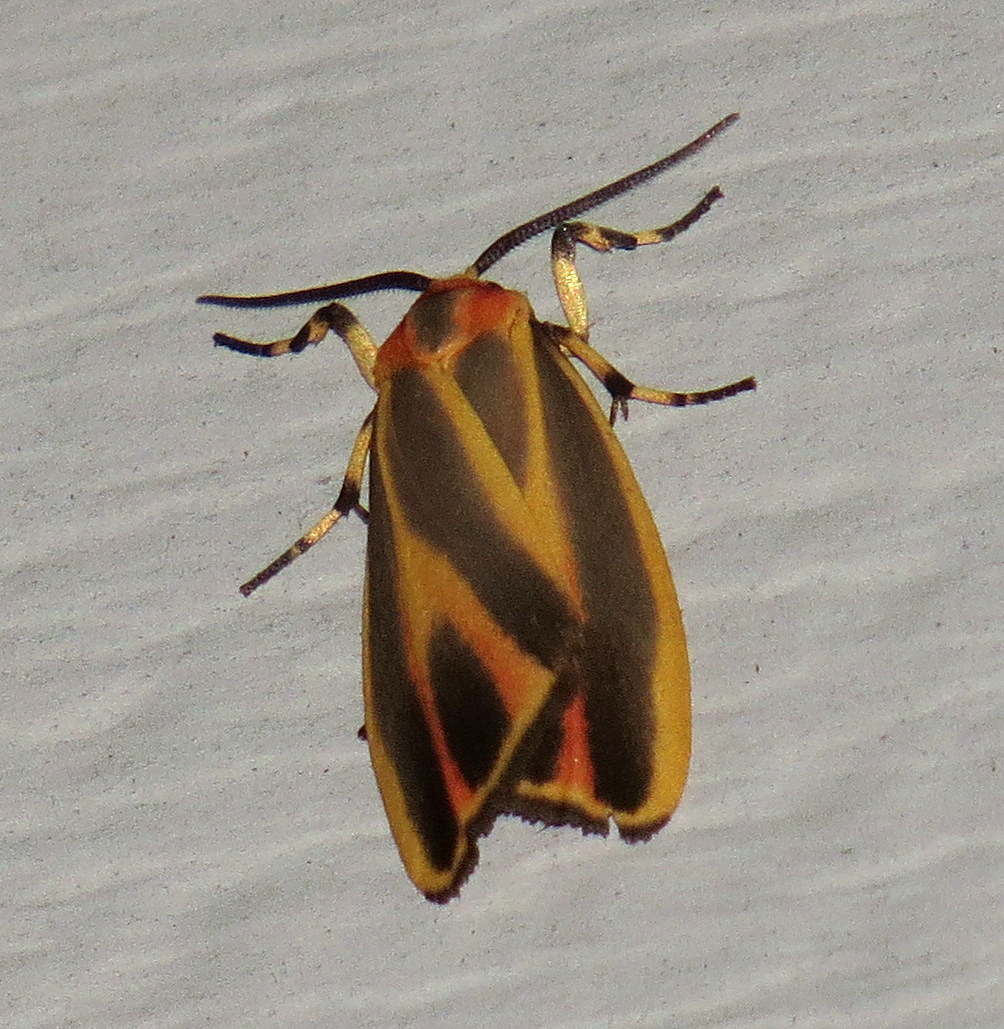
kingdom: Animalia
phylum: Arthropoda
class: Insecta
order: Lepidoptera
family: Erebidae
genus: Hypoprepia
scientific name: Hypoprepia fucosa
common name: Painted lichen moth
